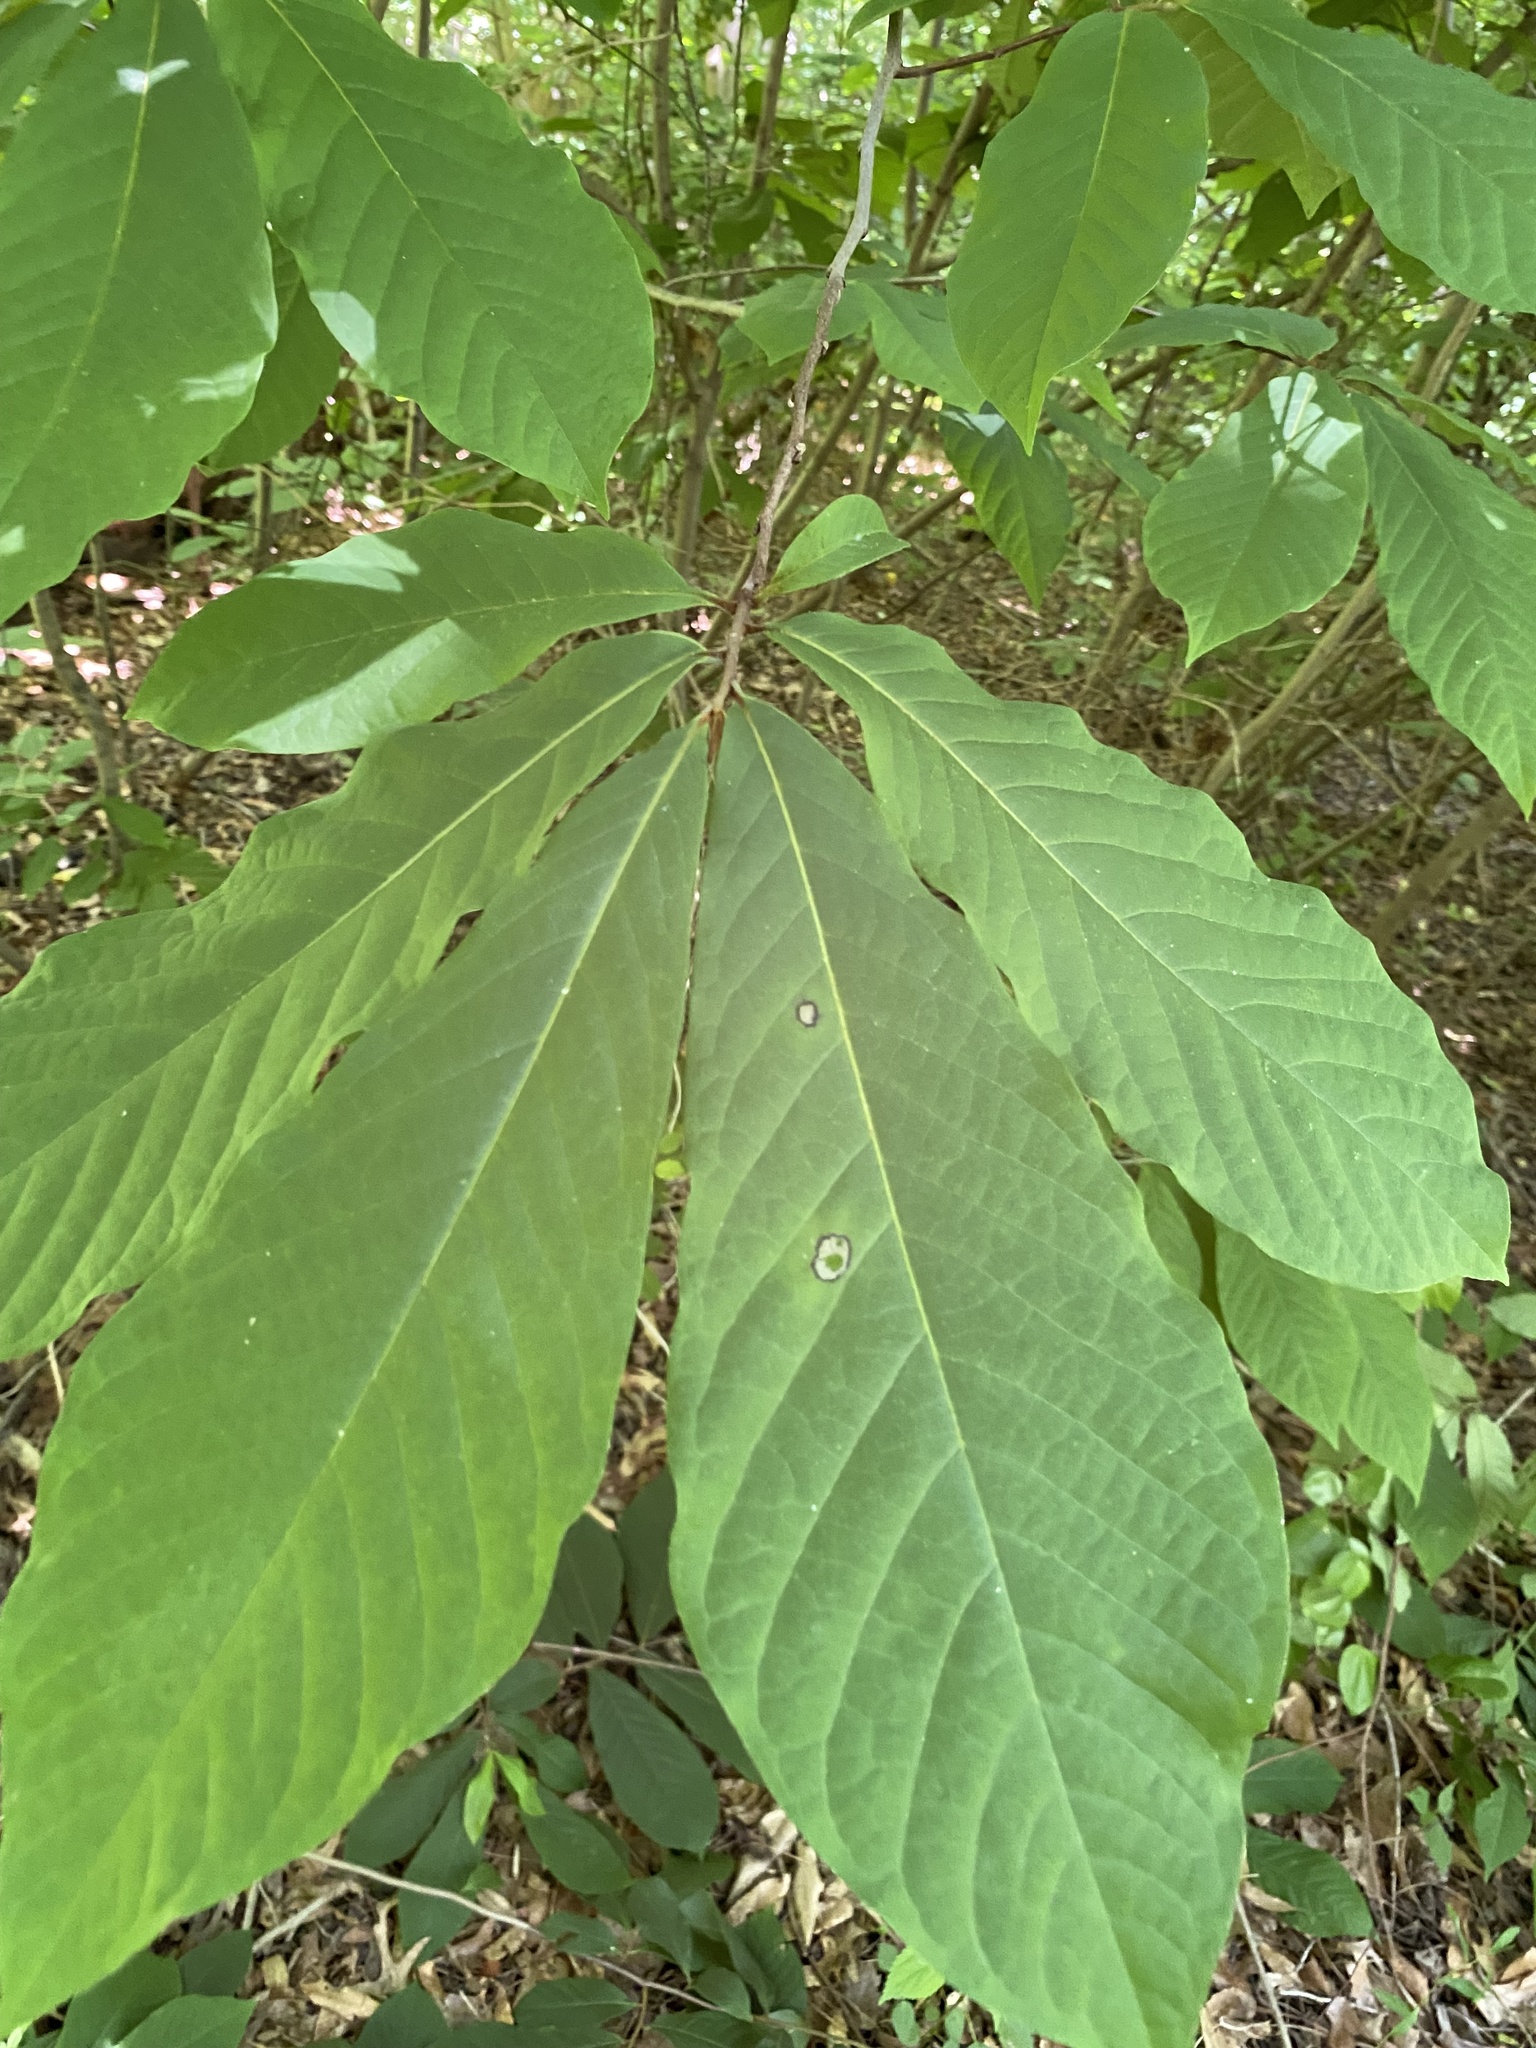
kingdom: Plantae
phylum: Tracheophyta
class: Magnoliopsida
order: Magnoliales
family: Annonaceae
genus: Asimina
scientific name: Asimina triloba
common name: Dog-banana
